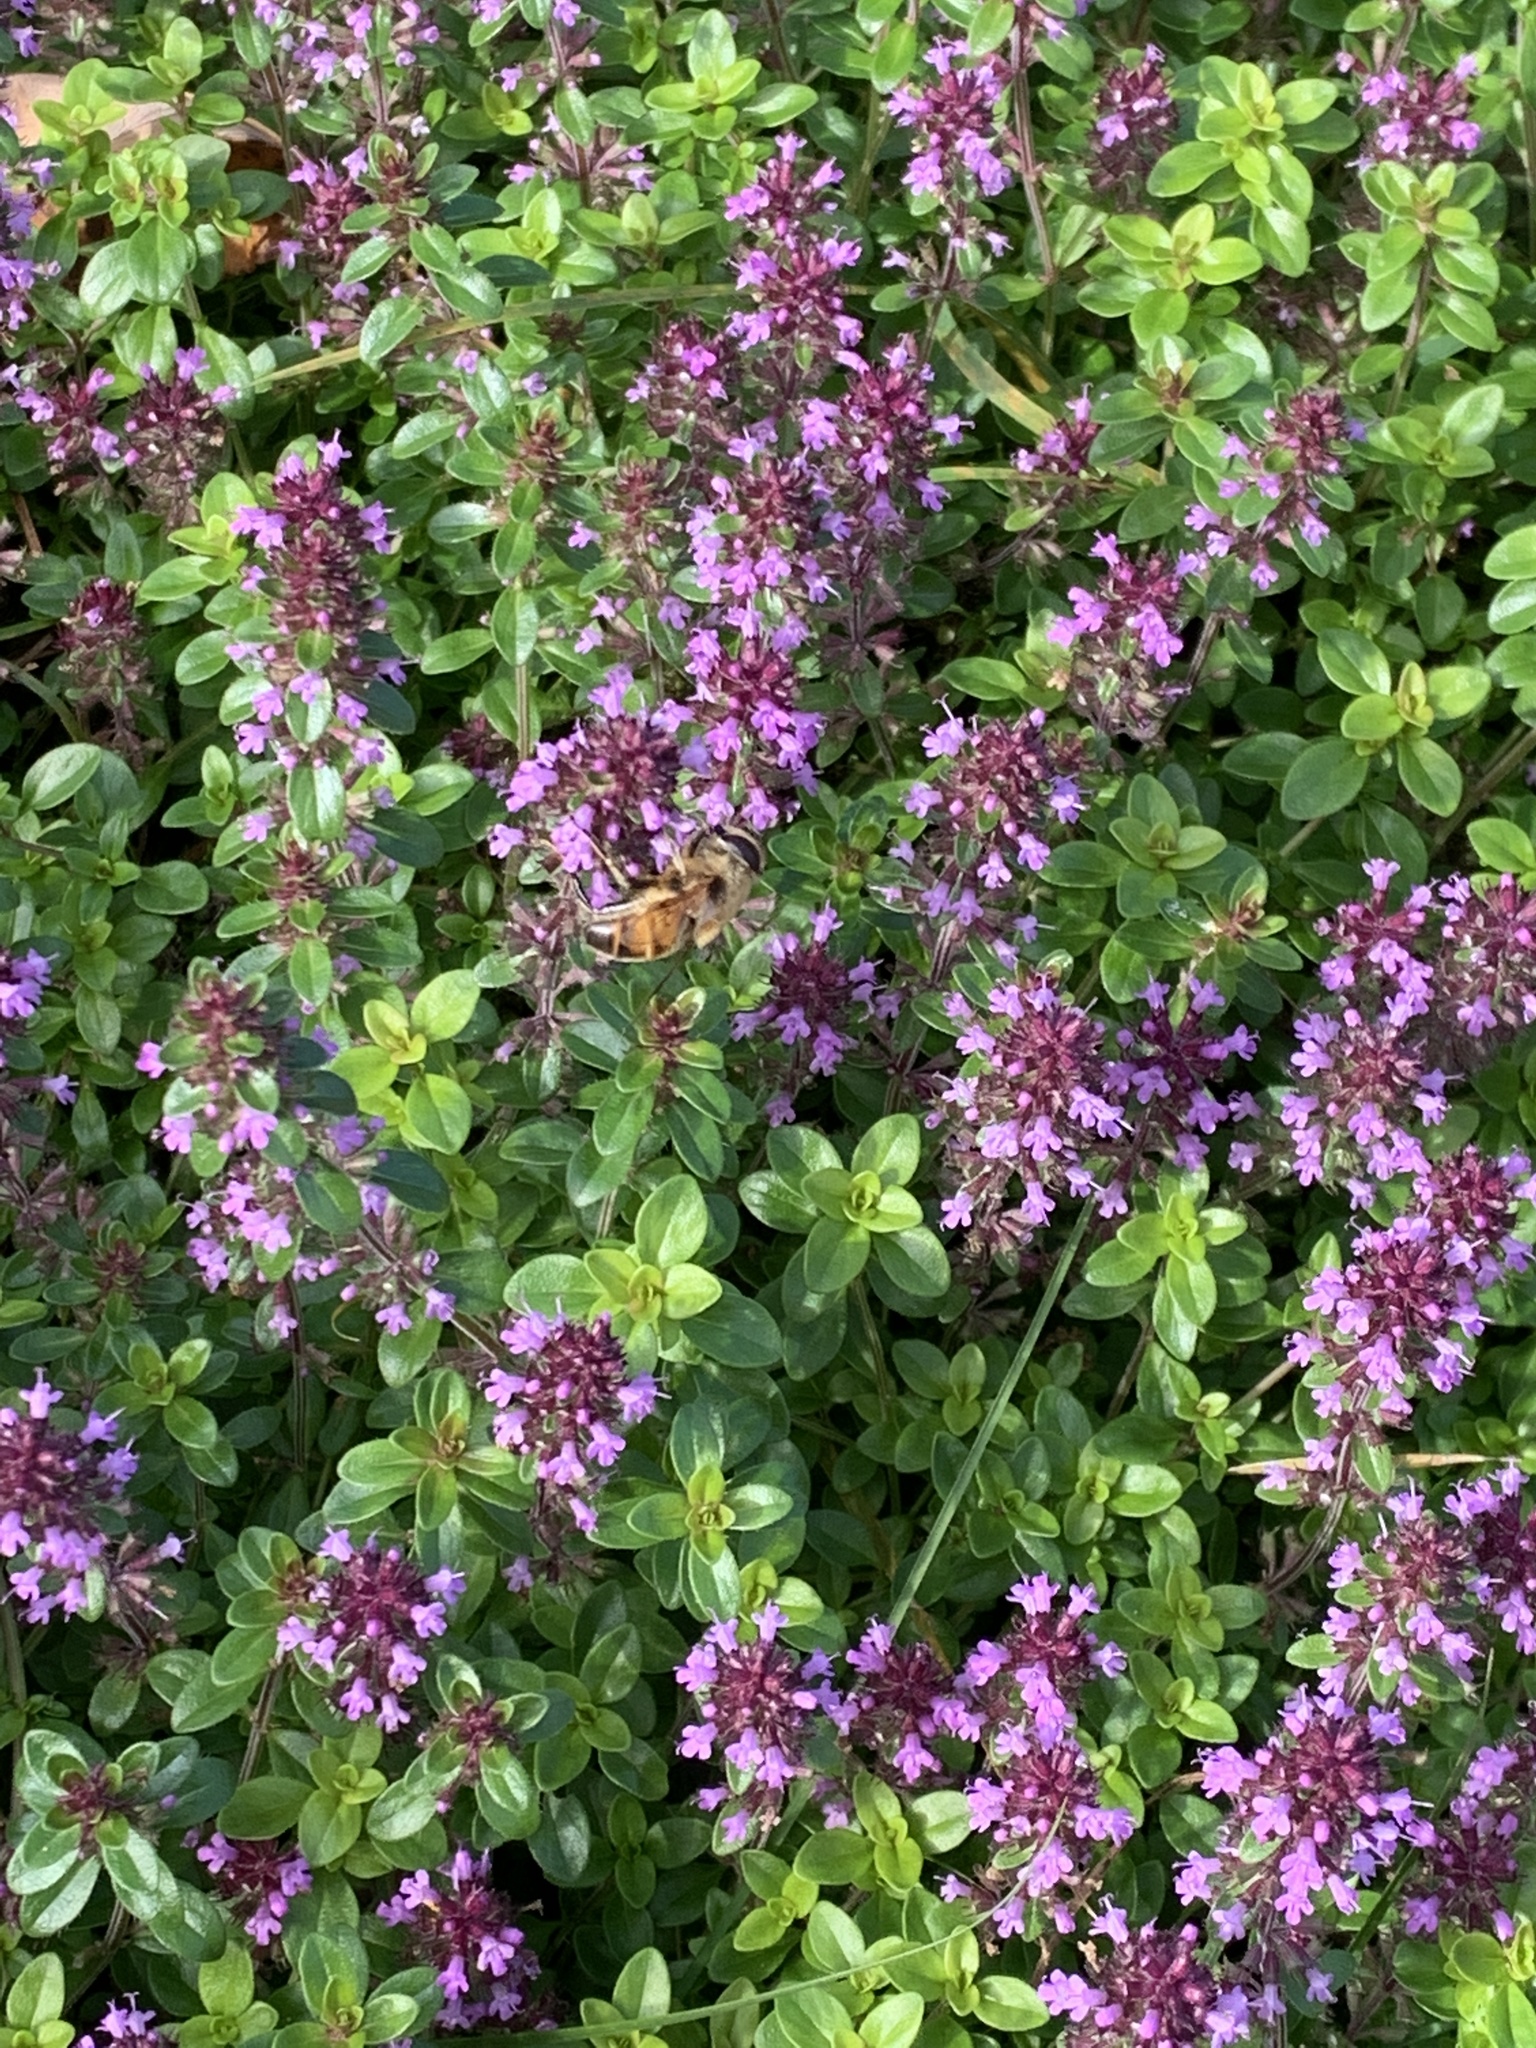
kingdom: Animalia
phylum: Arthropoda
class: Insecta
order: Diptera
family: Syrphidae
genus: Eristalis
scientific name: Eristalis tenax
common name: Drone fly
